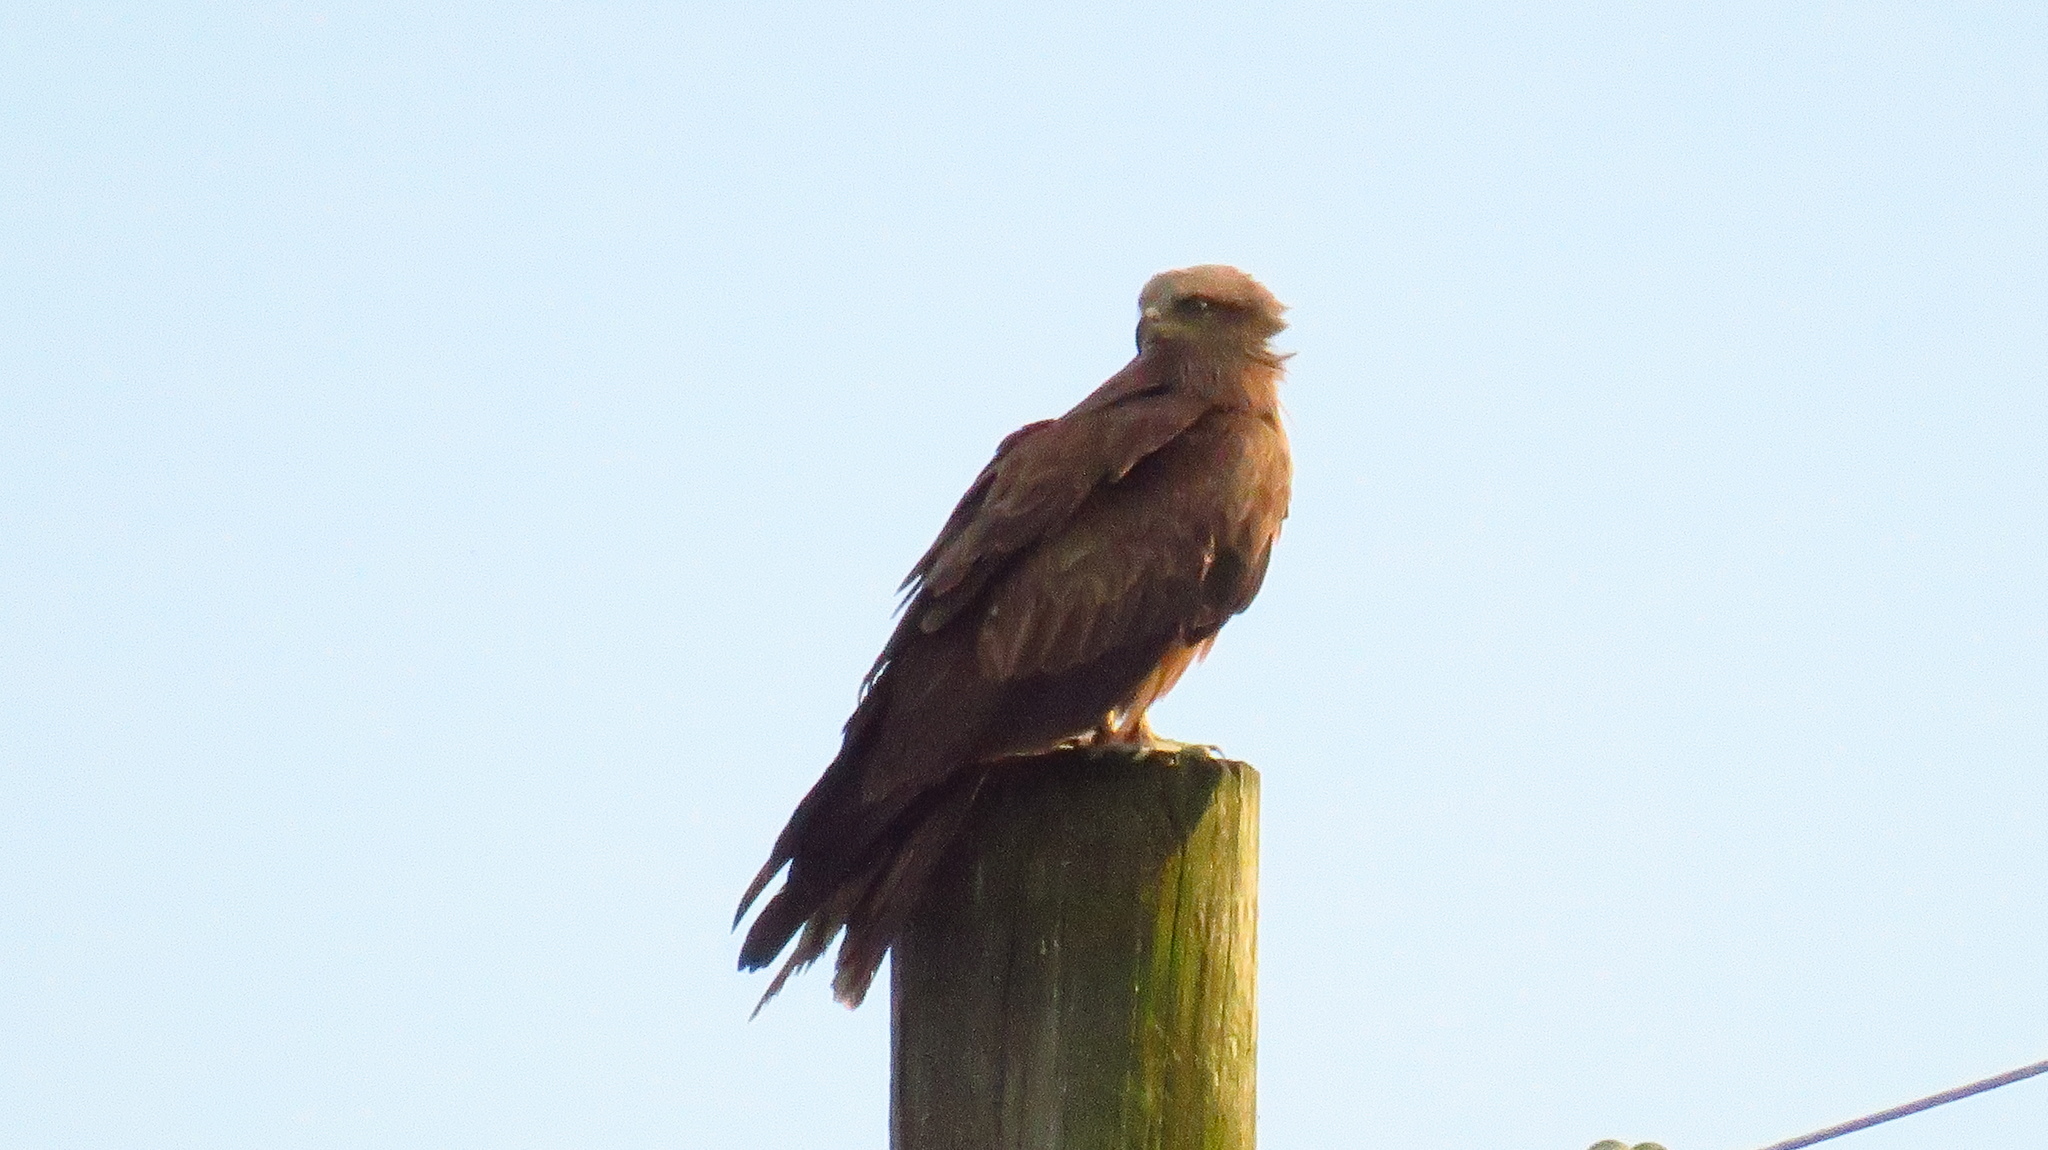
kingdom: Animalia
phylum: Chordata
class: Aves
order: Accipitriformes
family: Accipitridae
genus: Milvus
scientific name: Milvus migrans
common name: Black kite
